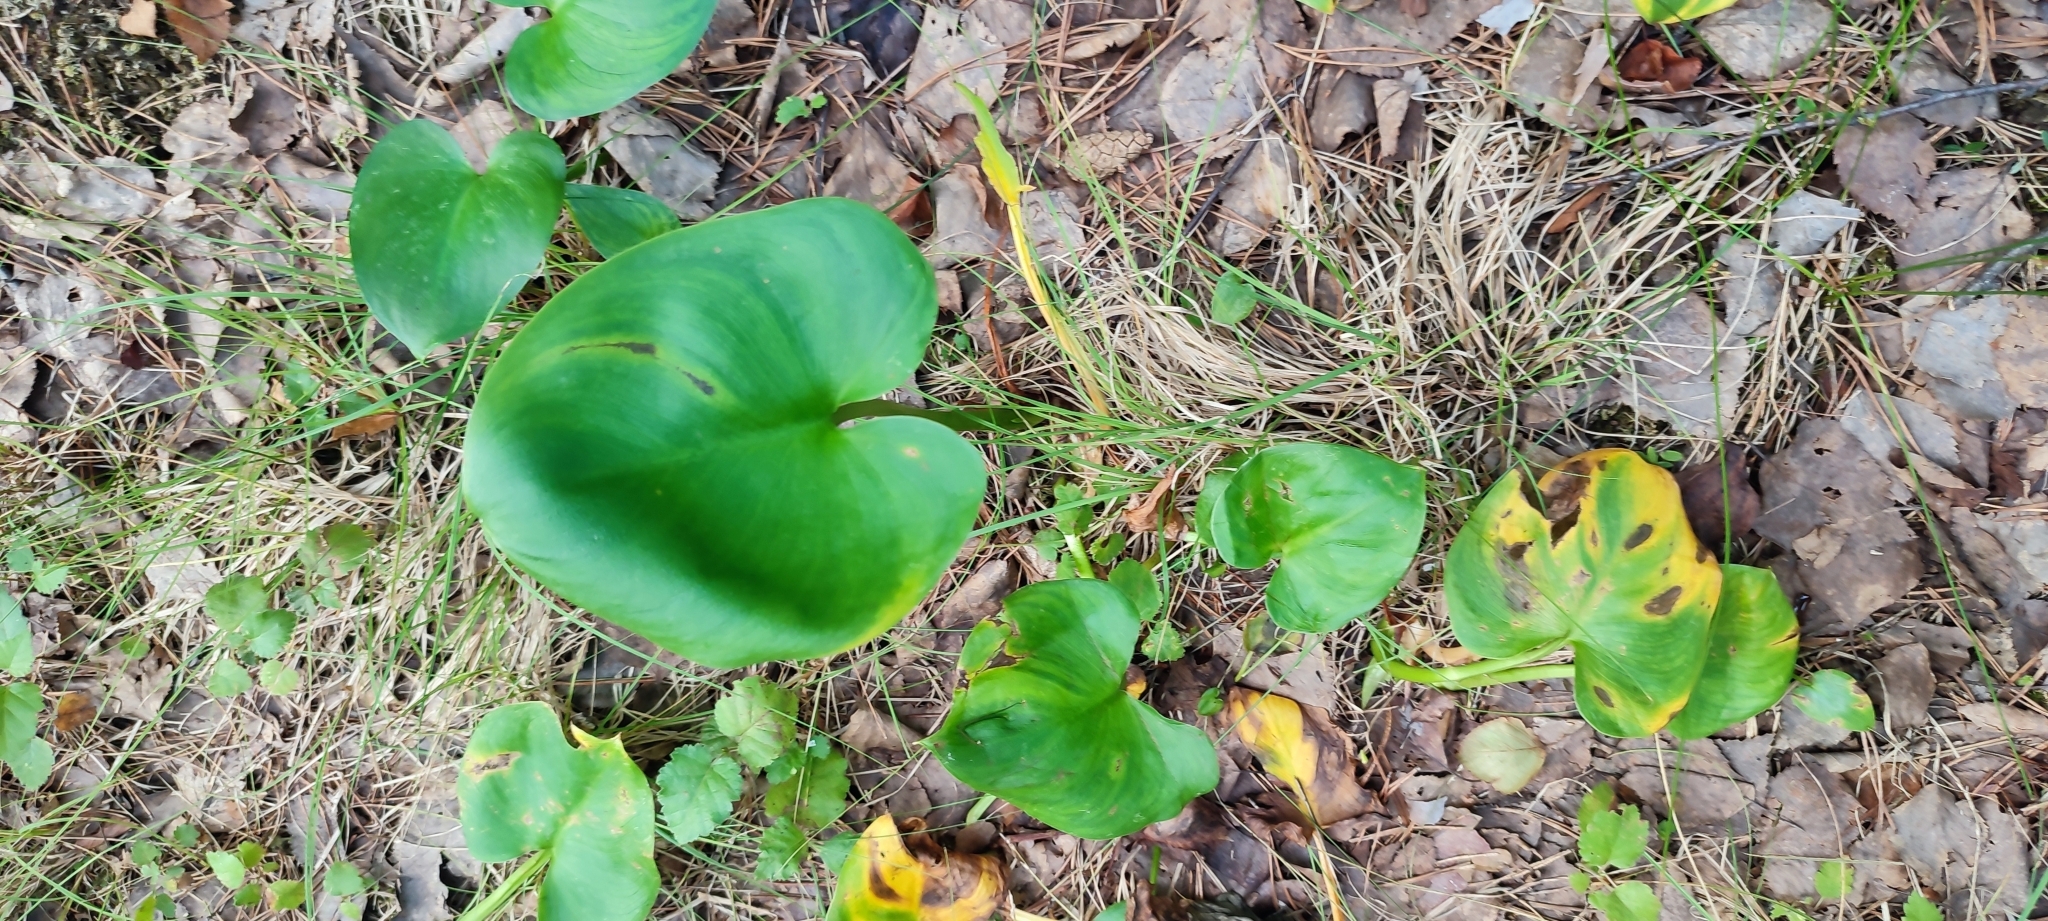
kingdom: Plantae
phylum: Tracheophyta
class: Liliopsida
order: Alismatales
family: Araceae
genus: Calla
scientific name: Calla palustris
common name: Bog arum
